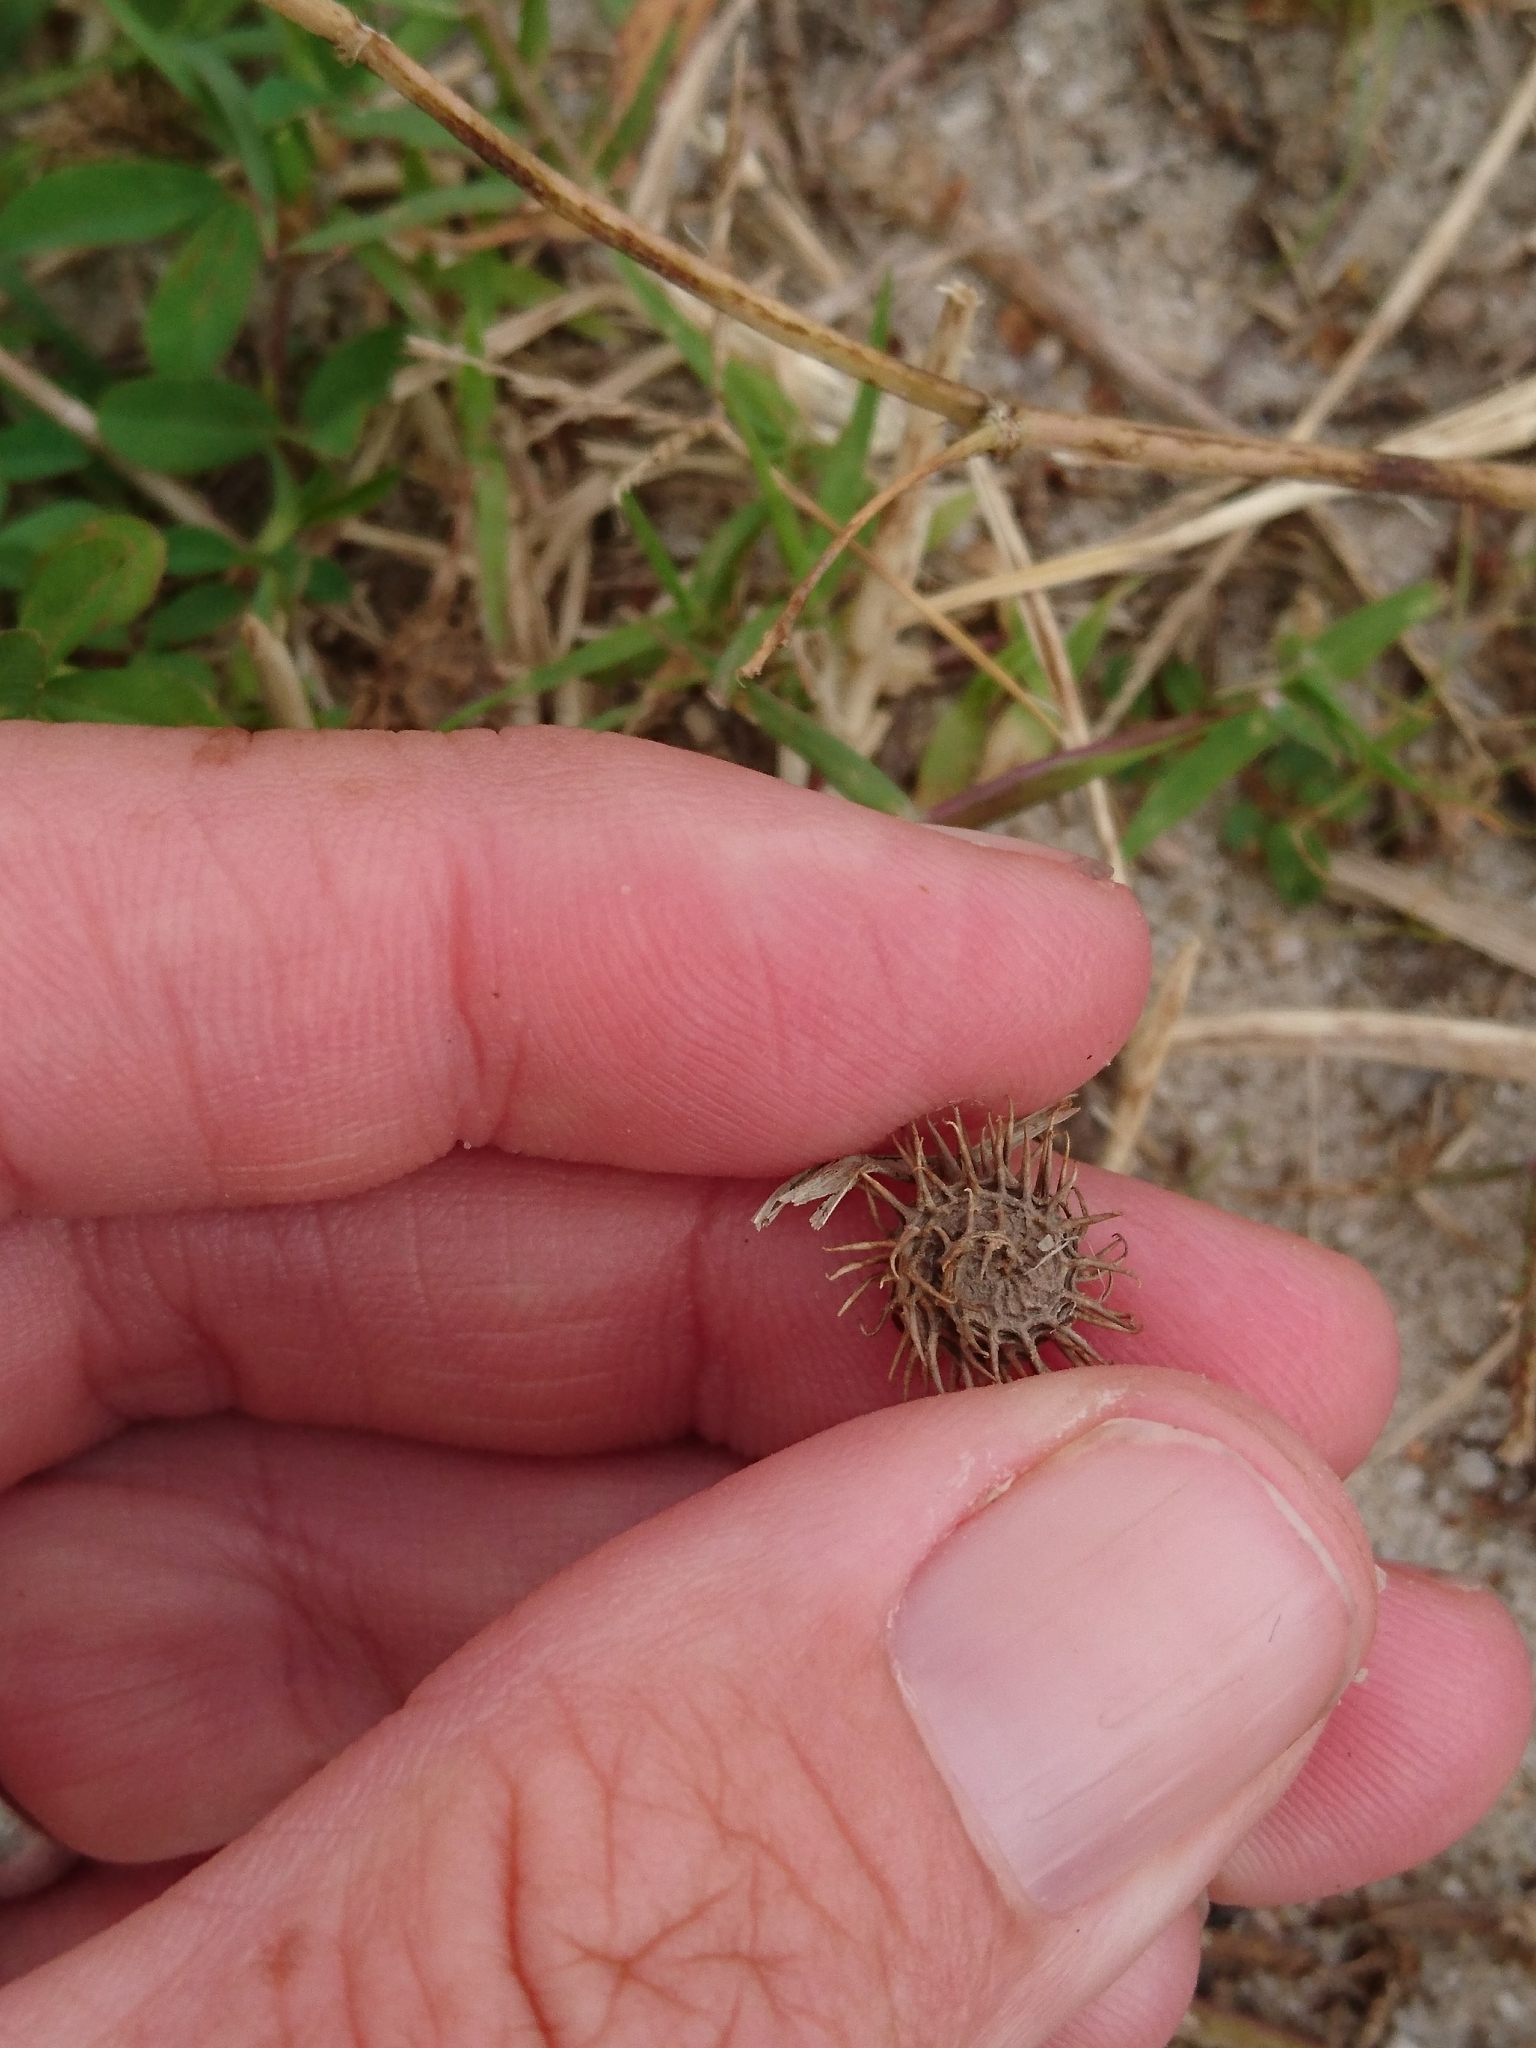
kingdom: Plantae
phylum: Tracheophyta
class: Magnoliopsida
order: Fabales
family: Fabaceae
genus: Medicago
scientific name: Medicago polymorpha
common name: Burclover
